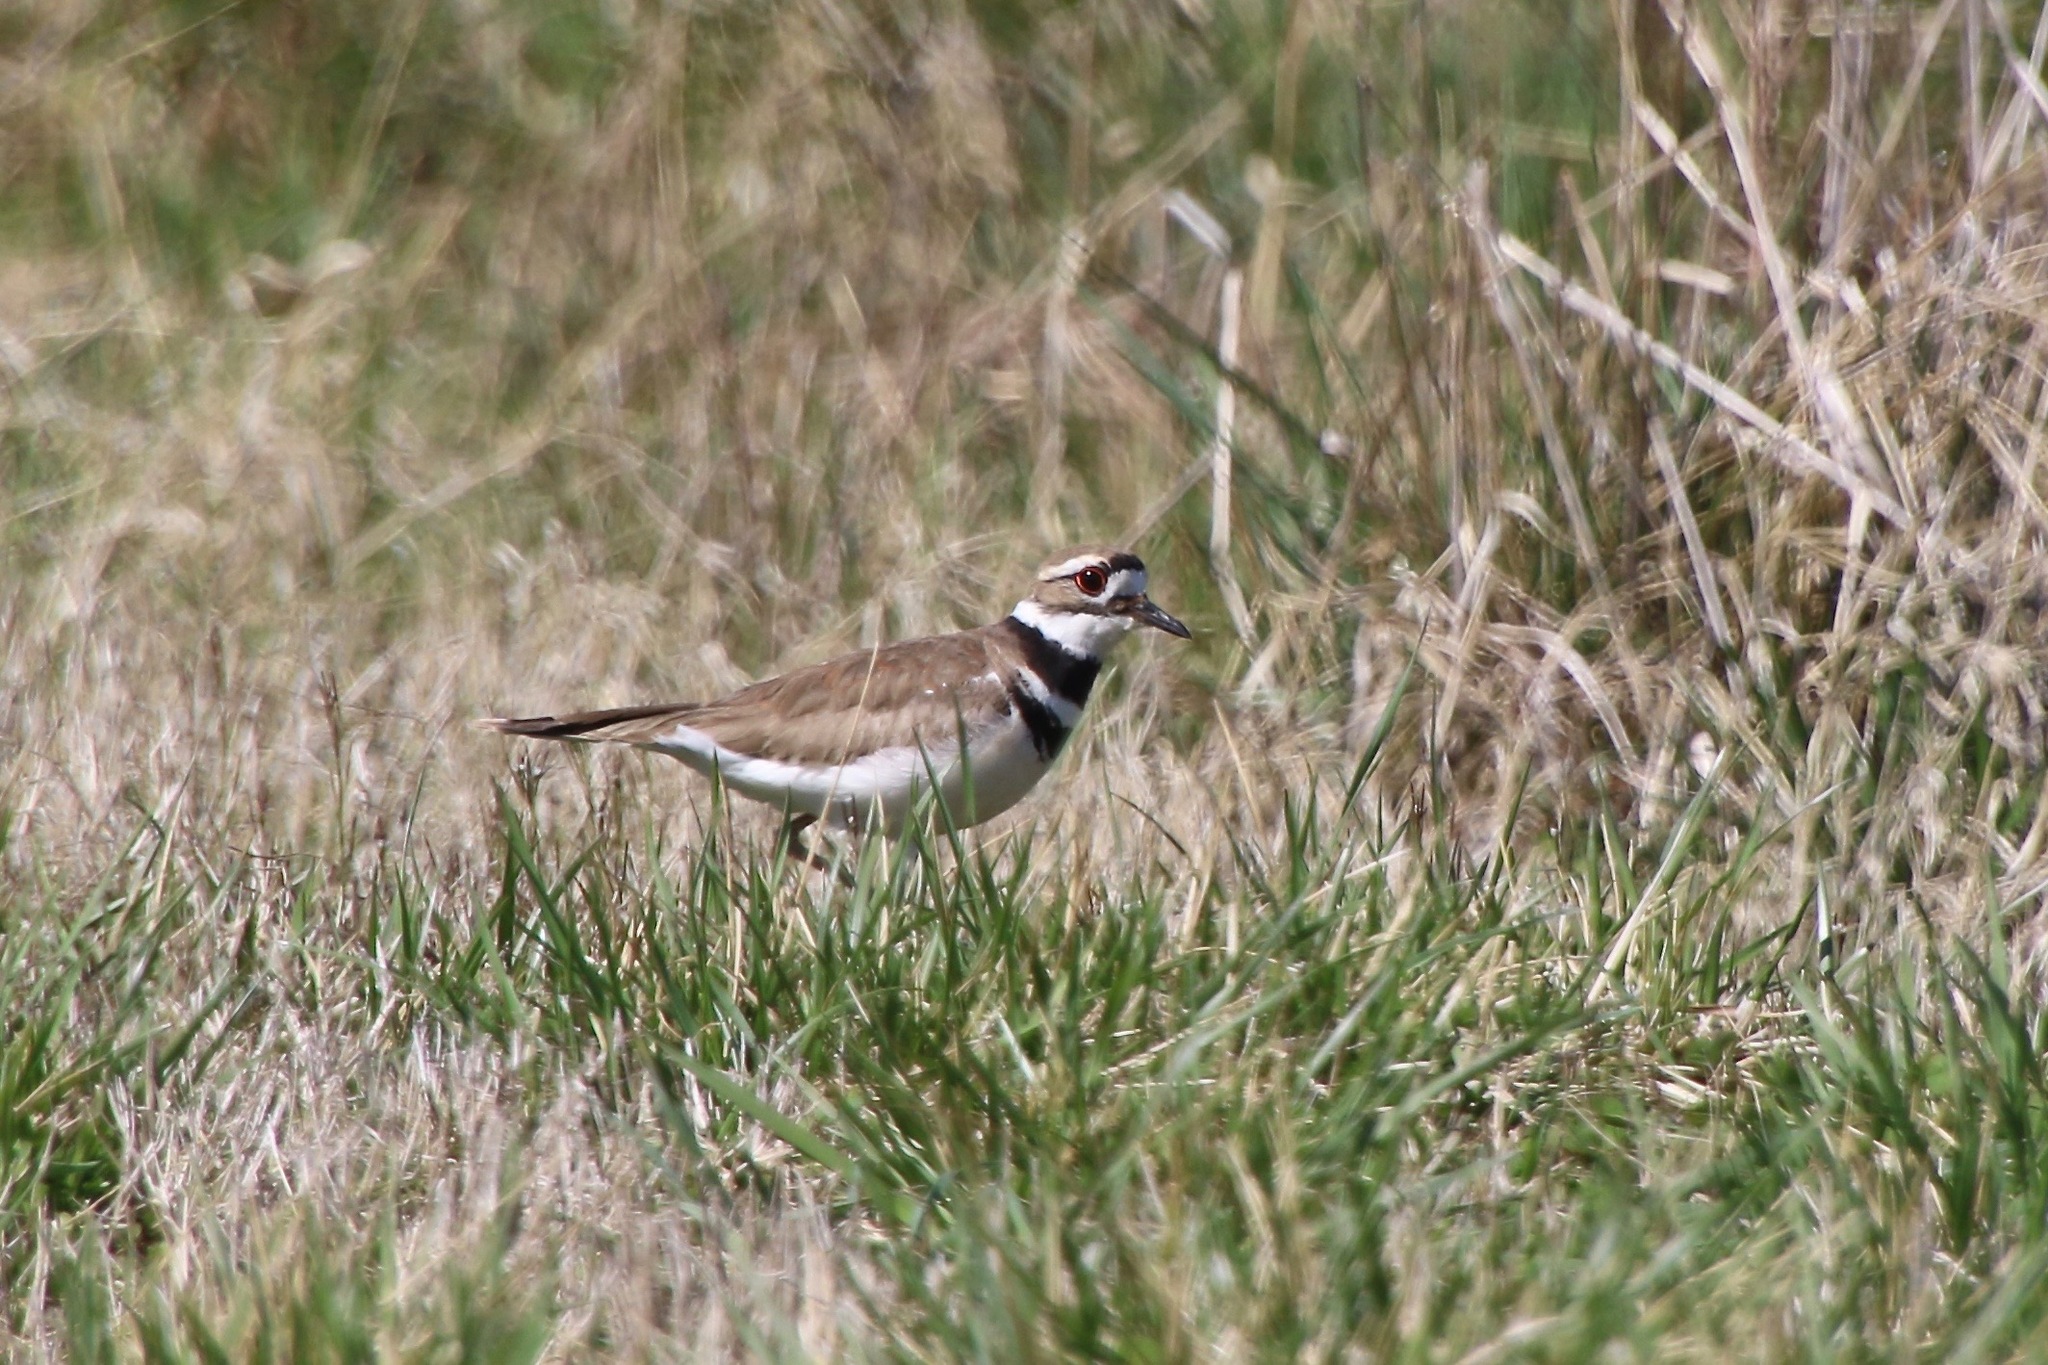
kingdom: Animalia
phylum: Chordata
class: Aves
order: Charadriiformes
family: Charadriidae
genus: Charadrius
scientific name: Charadrius vociferus
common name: Killdeer
